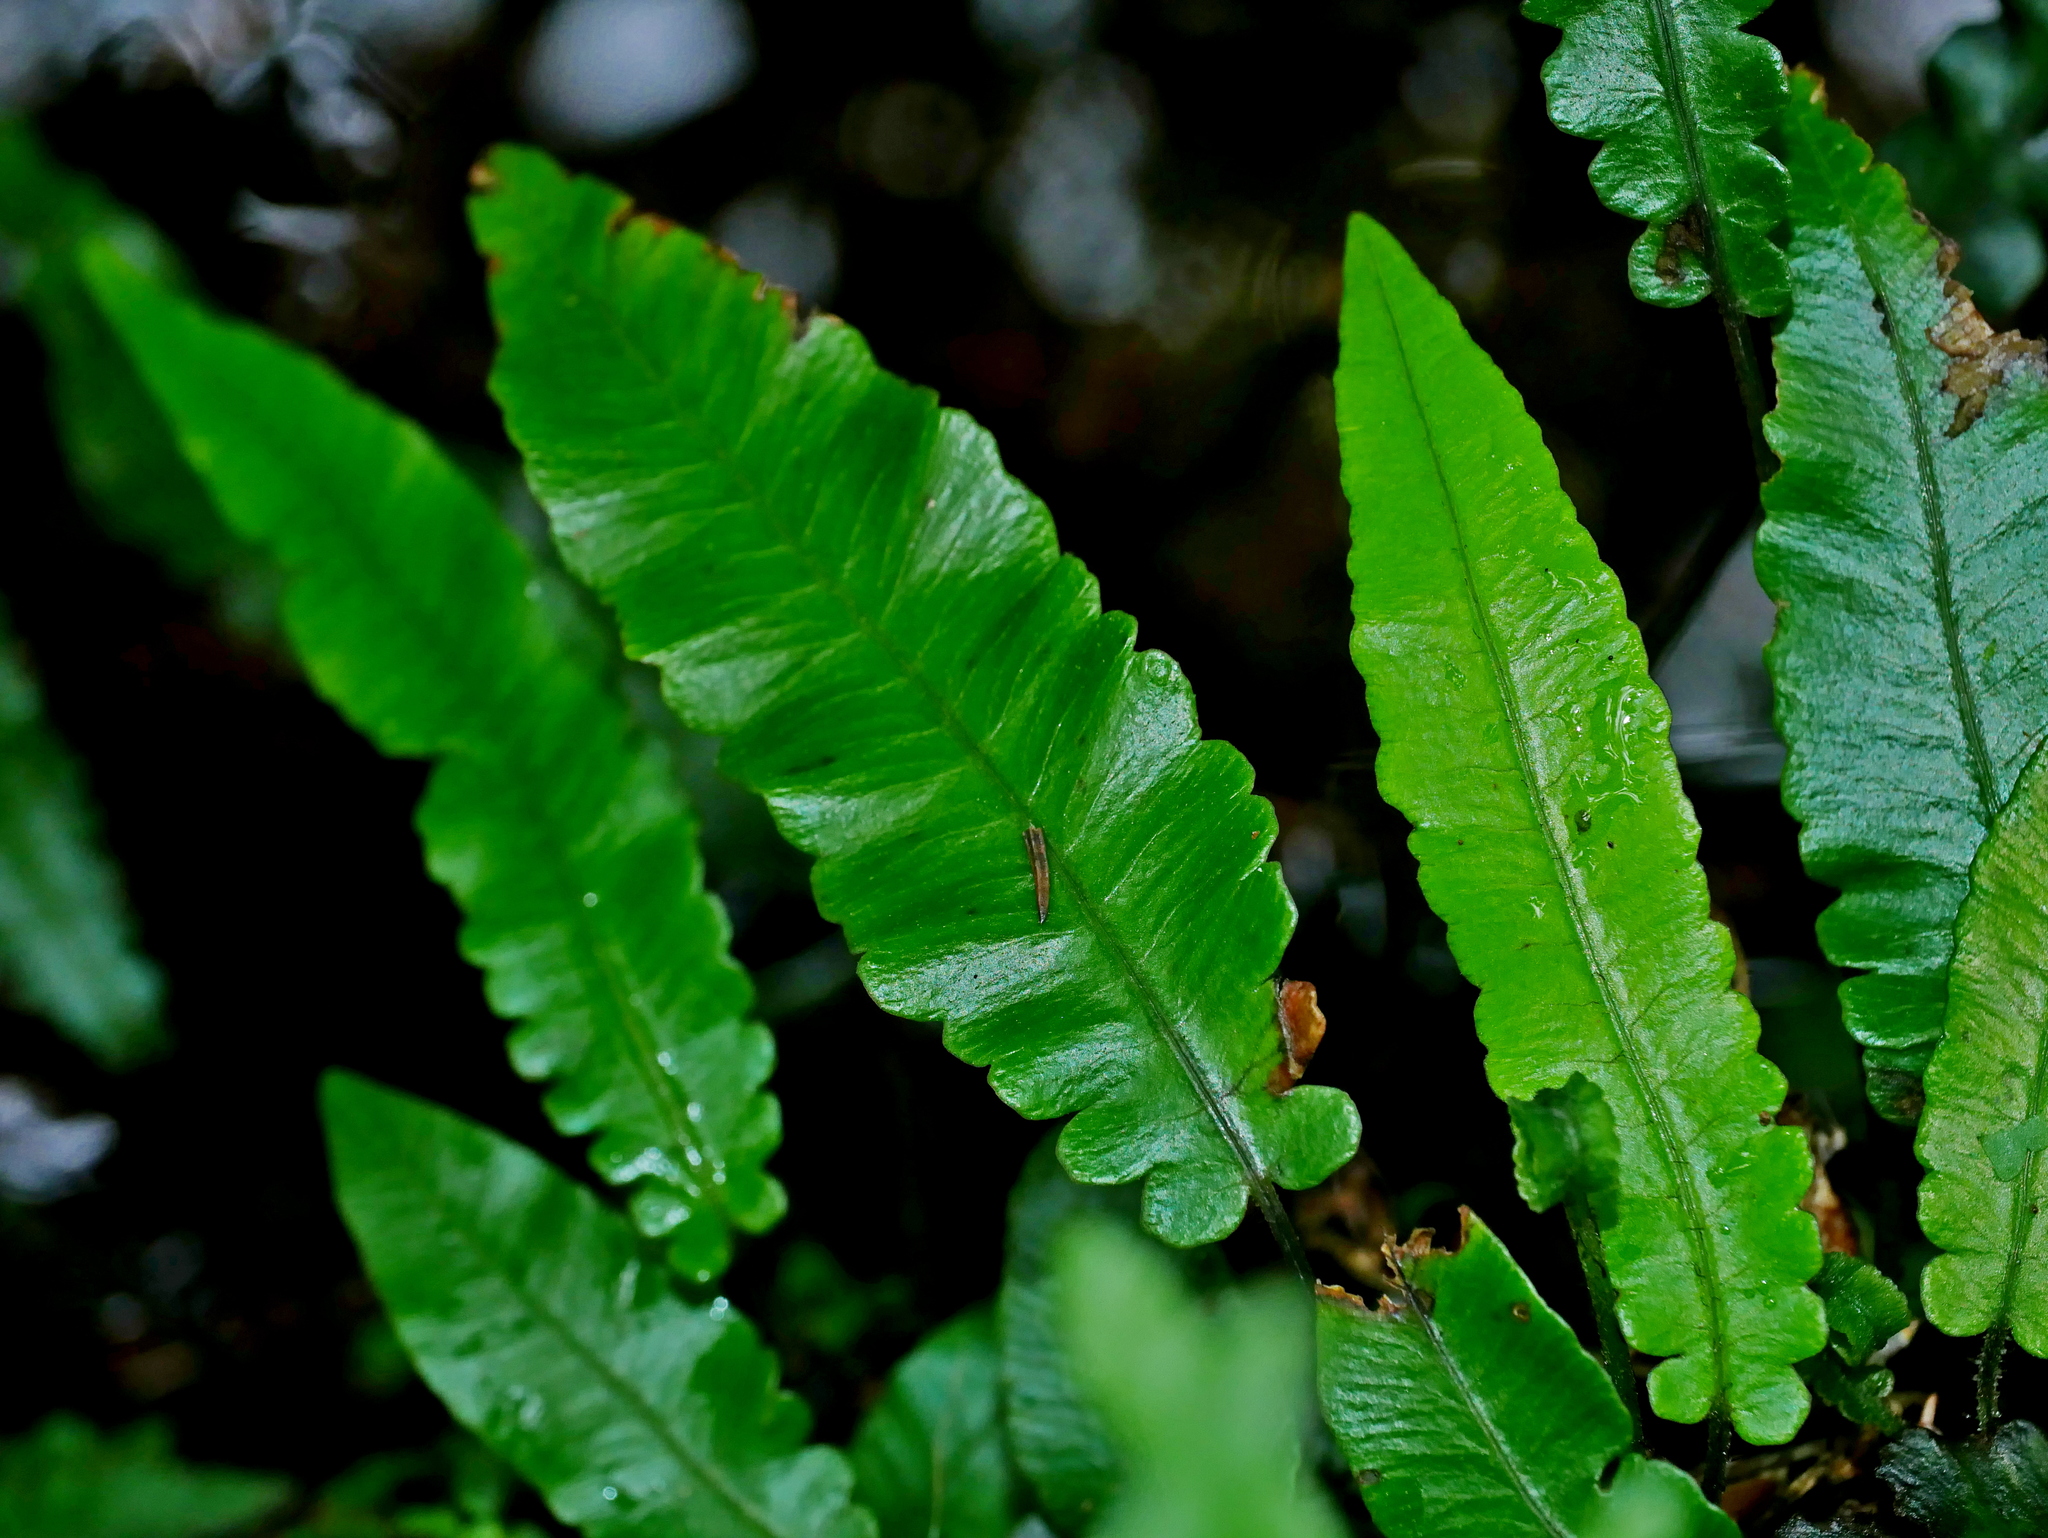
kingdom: Plantae
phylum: Tracheophyta
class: Polypodiopsida
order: Polypodiales
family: Athyriaceae
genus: Deparia
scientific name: Deparia tomitaroana
